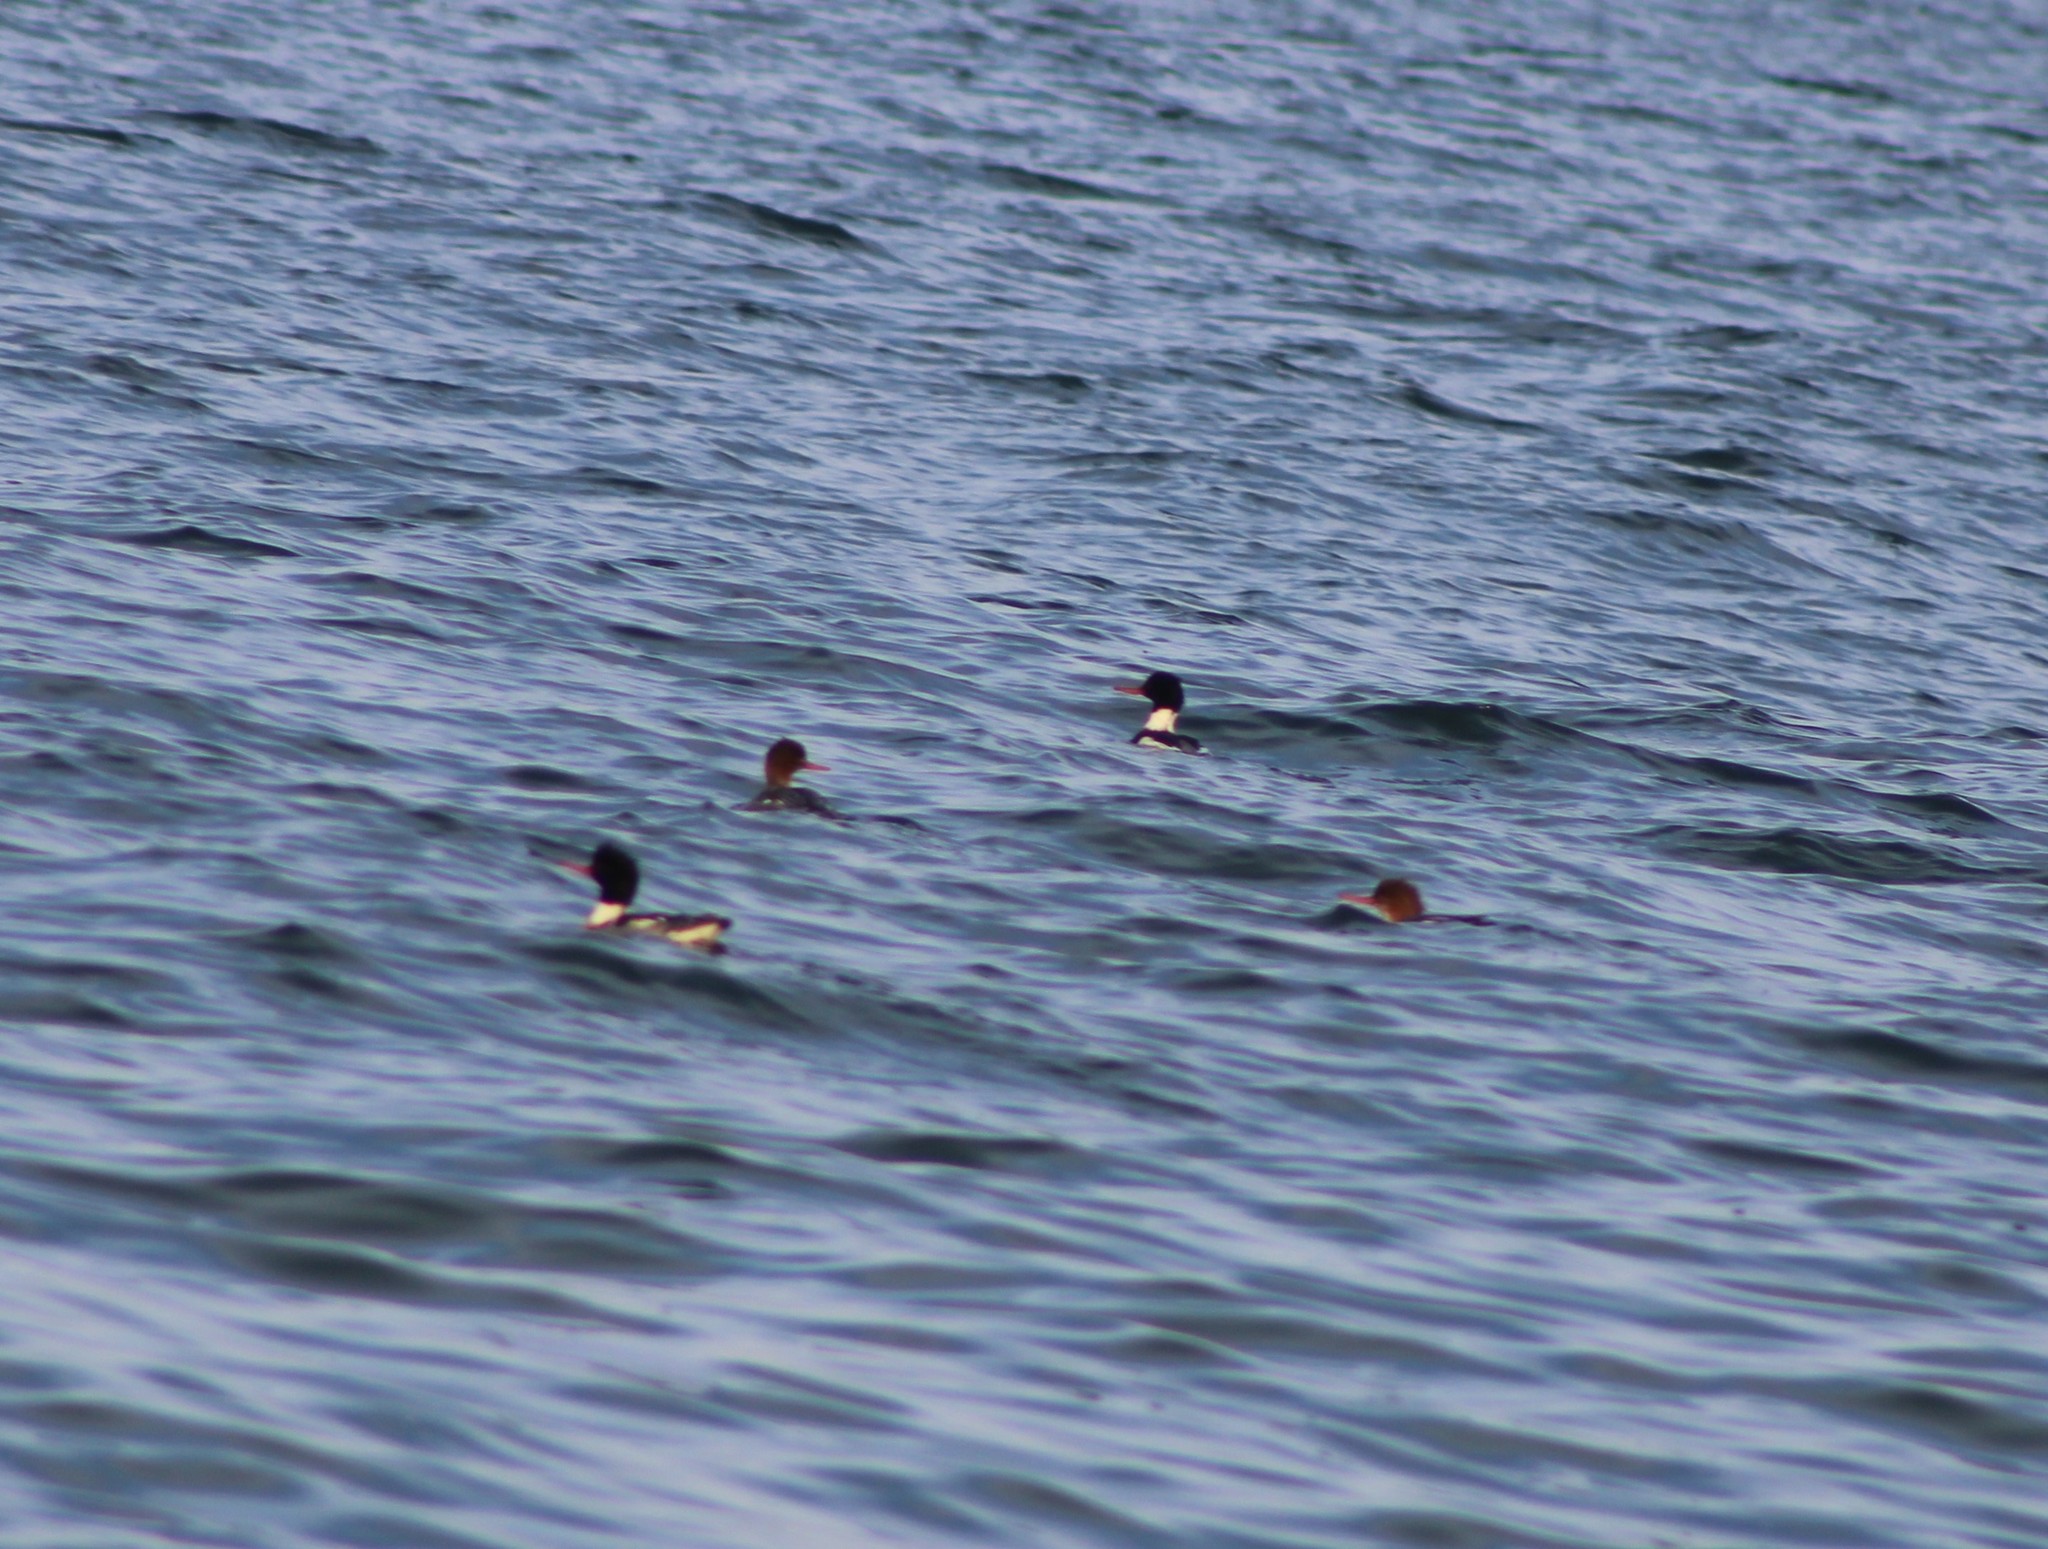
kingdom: Animalia
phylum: Chordata
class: Aves
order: Anseriformes
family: Anatidae
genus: Mergus
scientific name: Mergus serrator
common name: Red-breasted merganser
